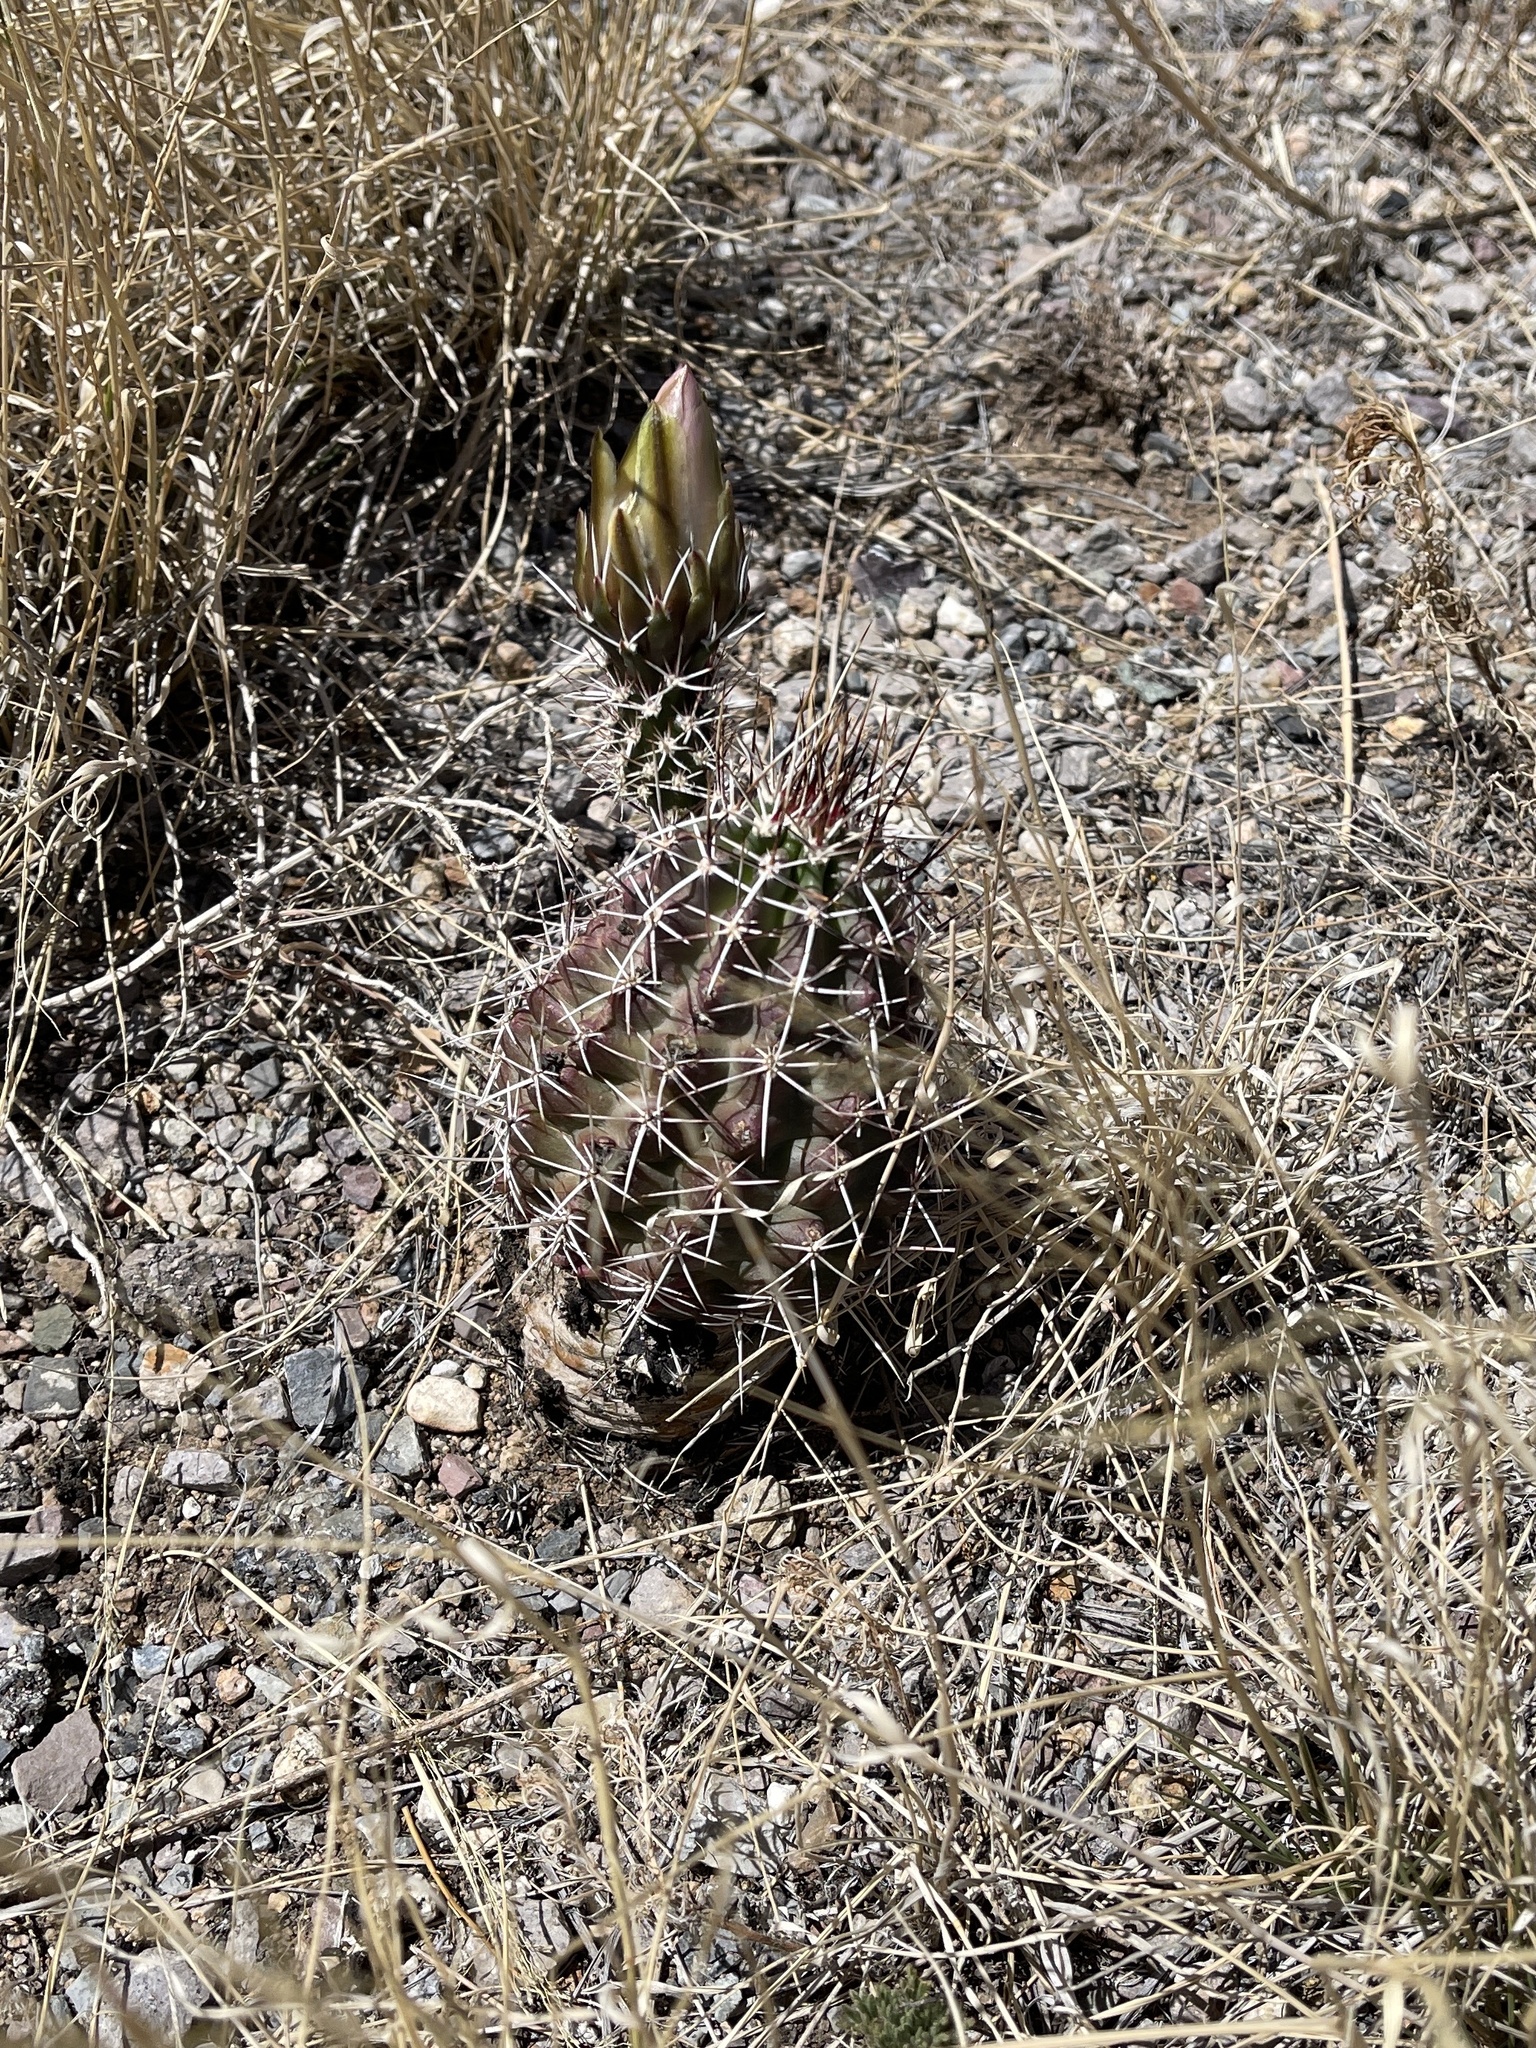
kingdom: Plantae
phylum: Tracheophyta
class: Magnoliopsida
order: Caryophyllales
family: Cactaceae
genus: Echinocereus
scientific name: Echinocereus fendleri
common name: Fendler's hedgehog cactus
